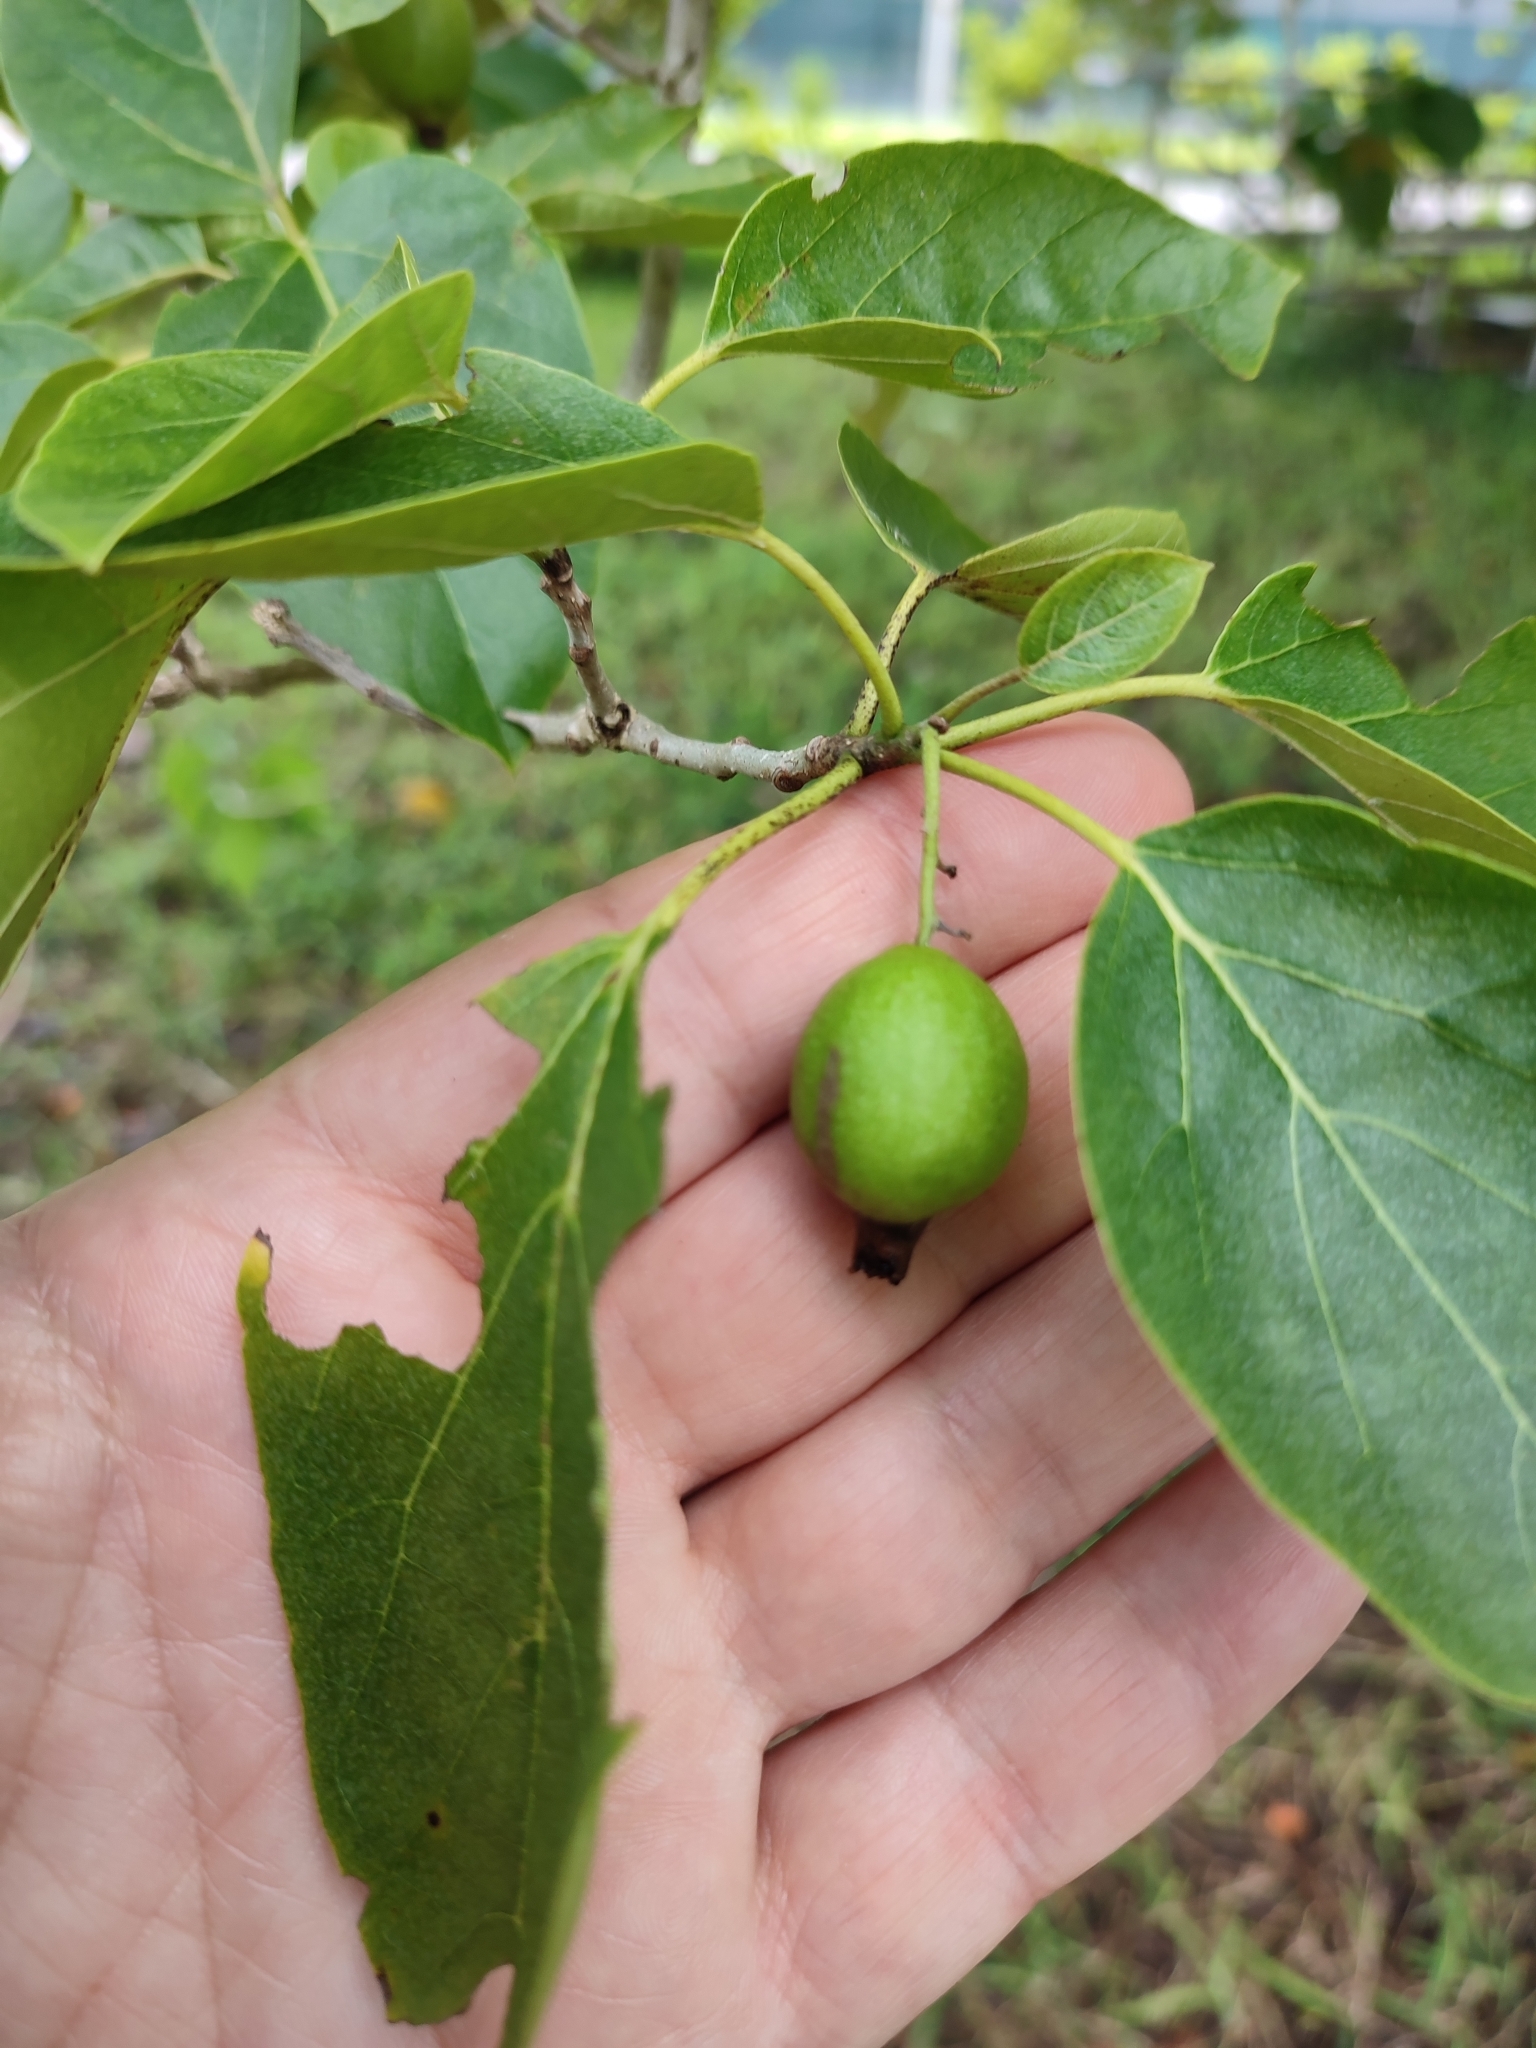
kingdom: Plantae
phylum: Tracheophyta
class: Magnoliopsida
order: Boraginales
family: Cordiaceae
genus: Cordia
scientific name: Cordia subcordata
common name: Mareer
